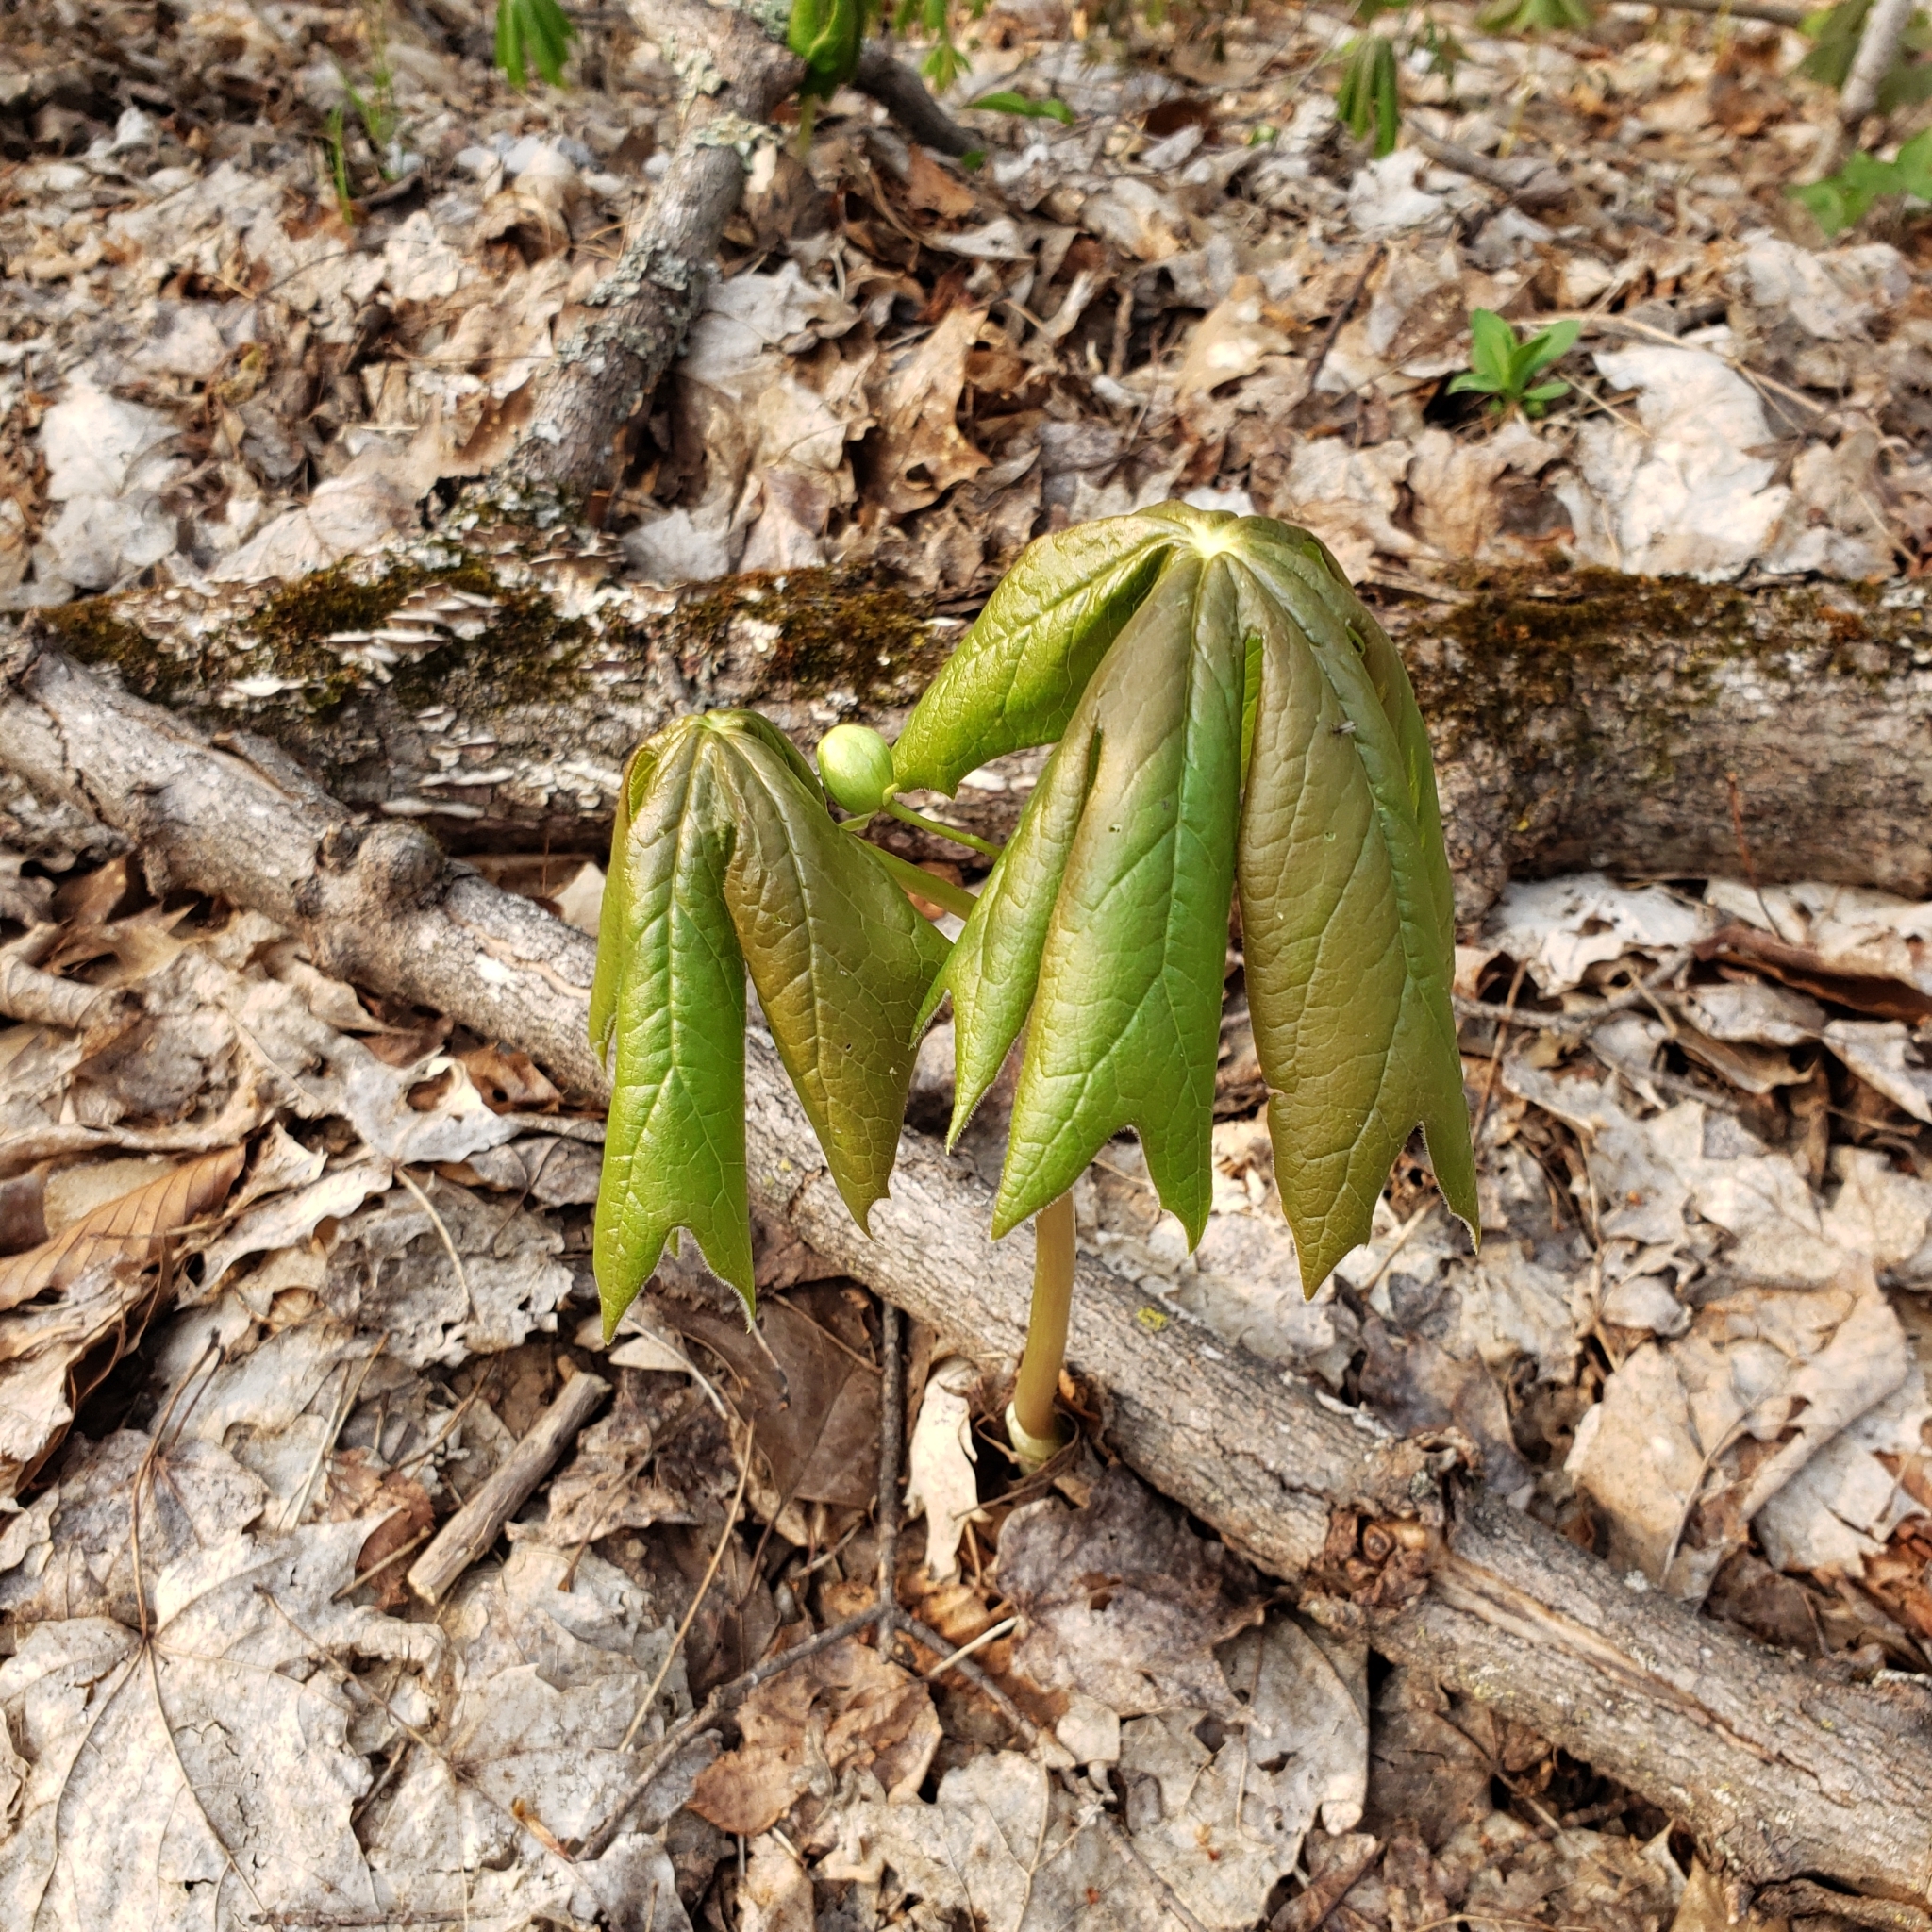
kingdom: Plantae
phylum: Tracheophyta
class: Magnoliopsida
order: Ranunculales
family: Berberidaceae
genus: Podophyllum
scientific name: Podophyllum peltatum
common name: Wild mandrake
